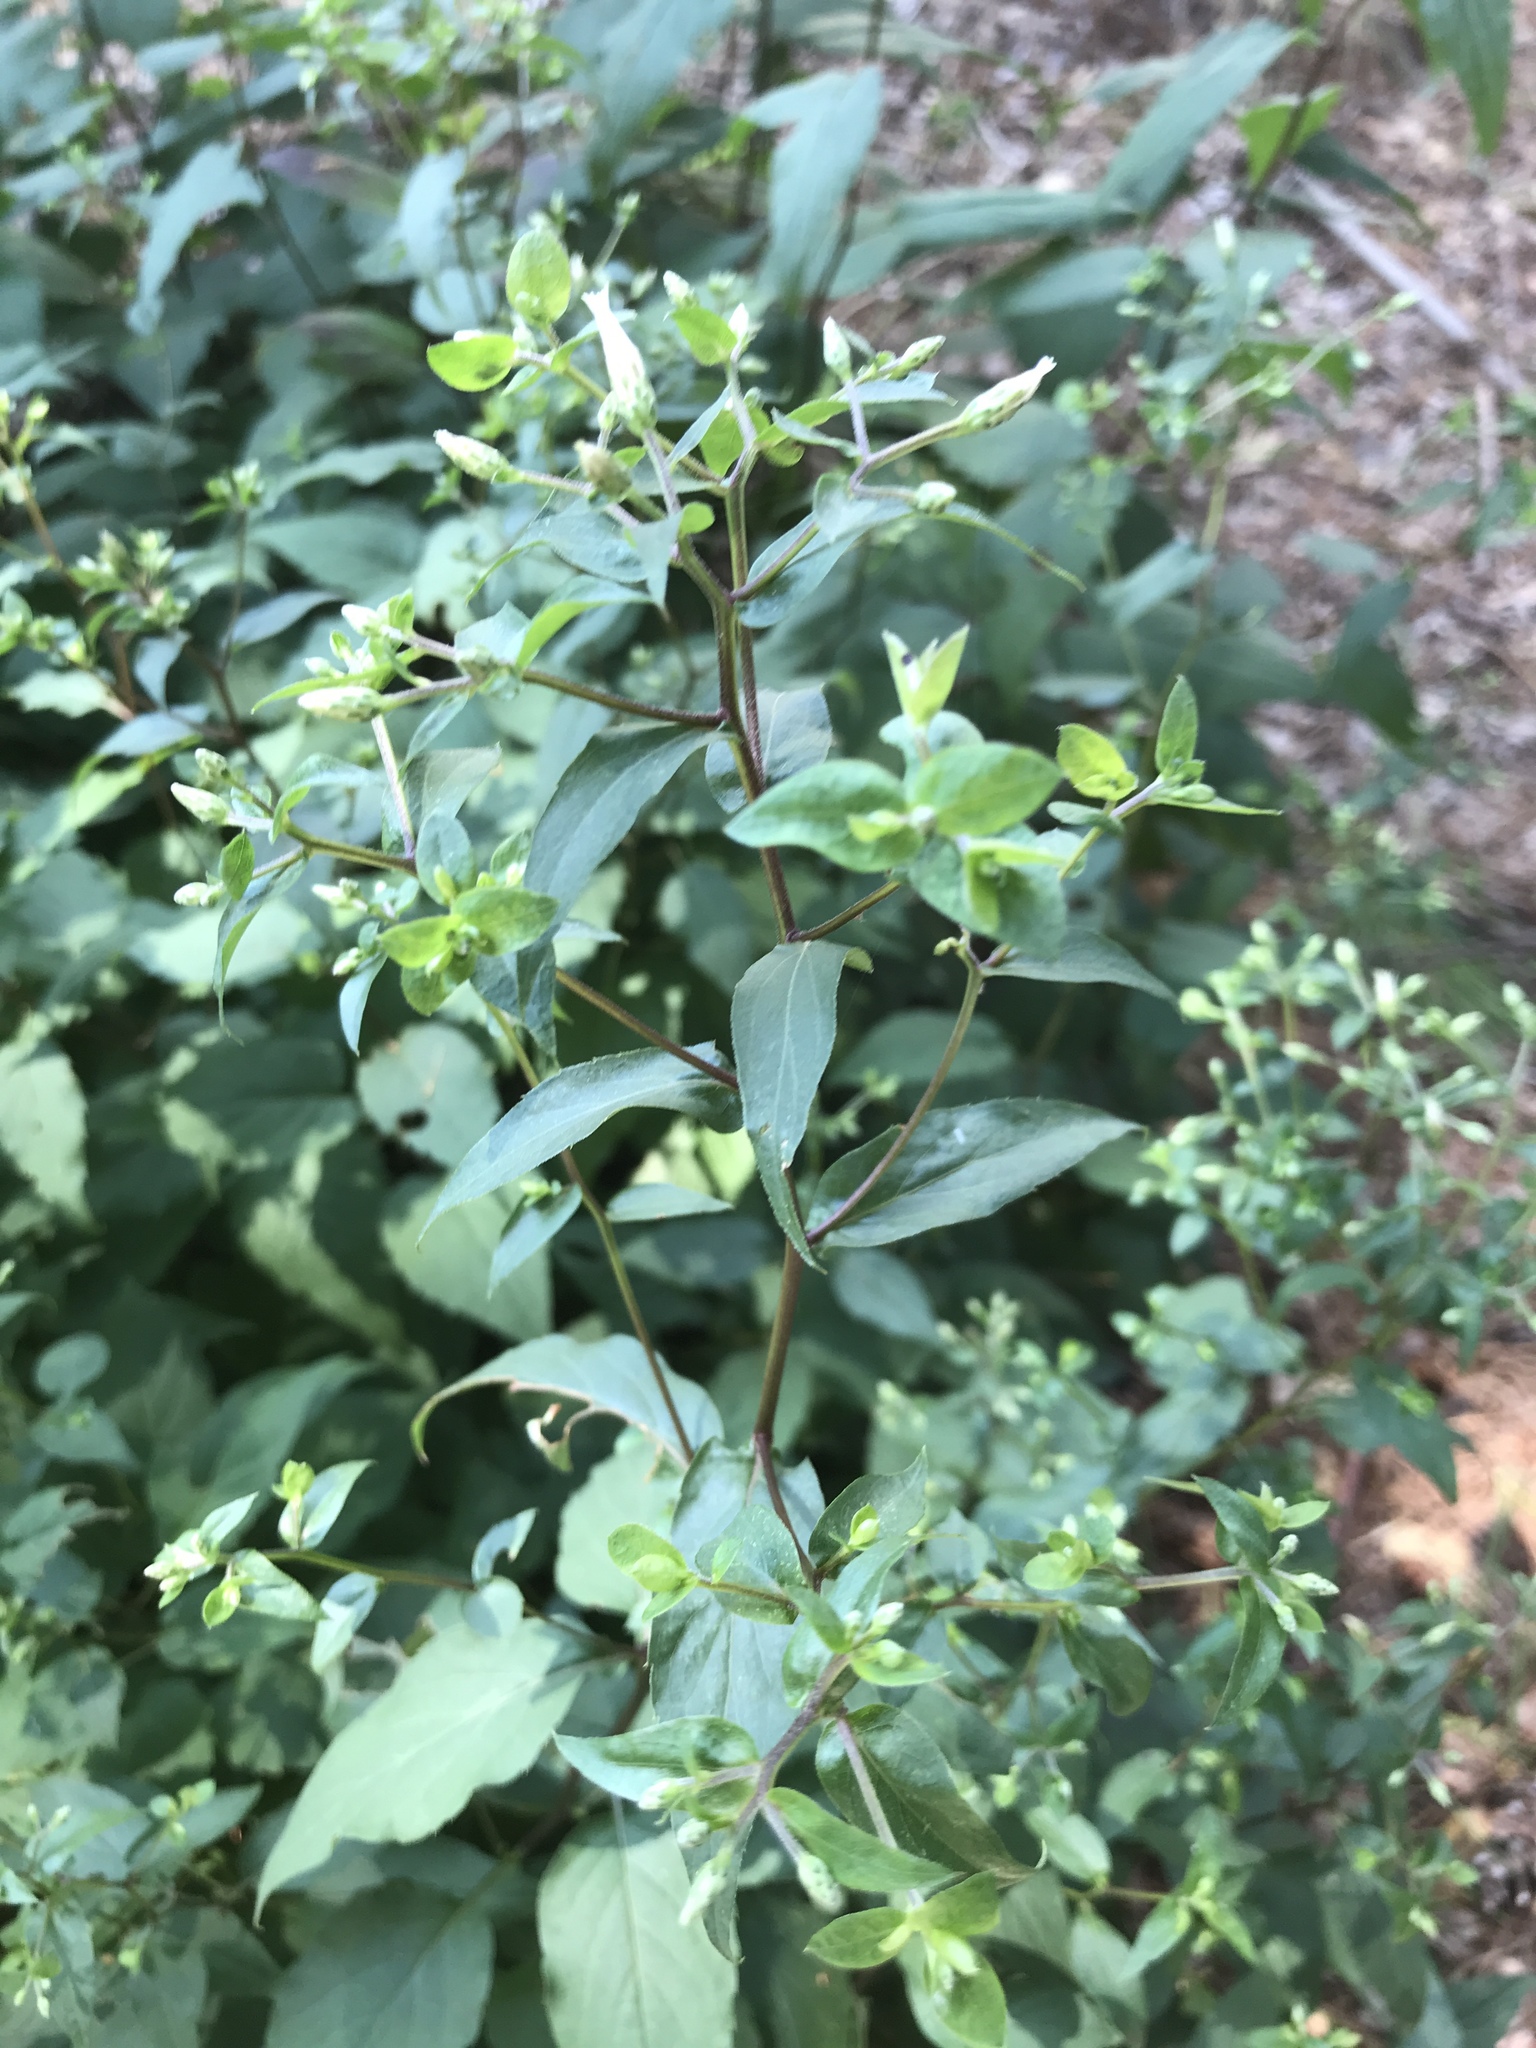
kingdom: Plantae
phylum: Tracheophyta
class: Magnoliopsida
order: Asterales
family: Asteraceae
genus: Eurybia
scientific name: Eurybia divaricata
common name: White wood aster
